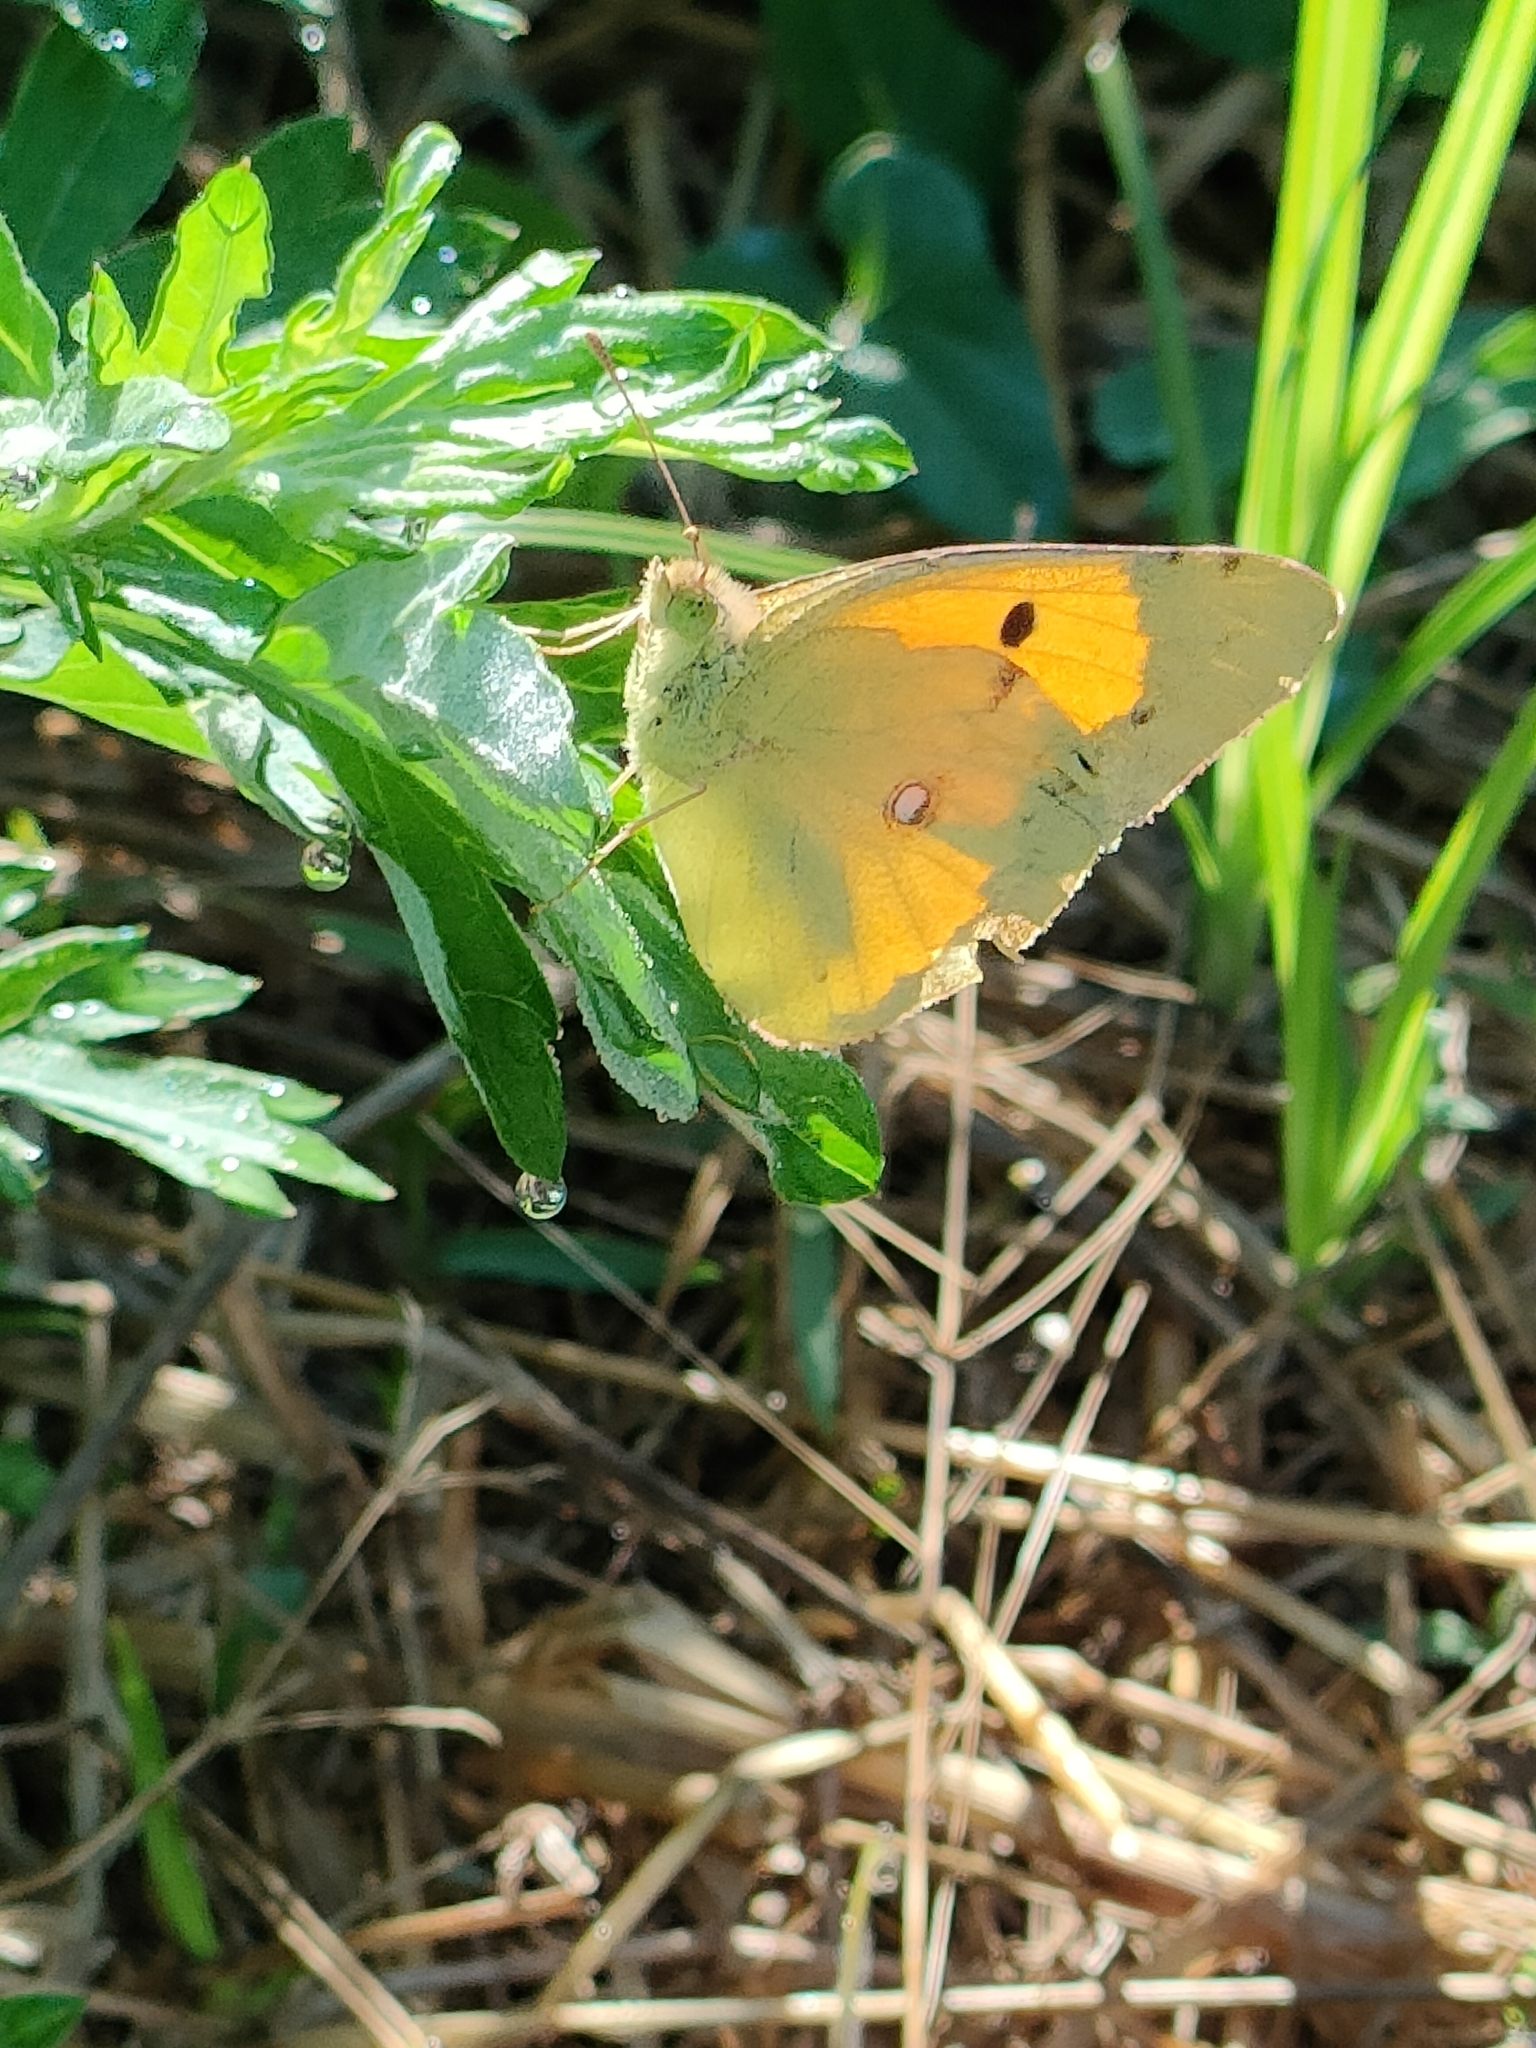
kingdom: Animalia
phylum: Arthropoda
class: Insecta
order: Lepidoptera
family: Pieridae
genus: Colias
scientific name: Colias croceus
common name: Clouded yellow
